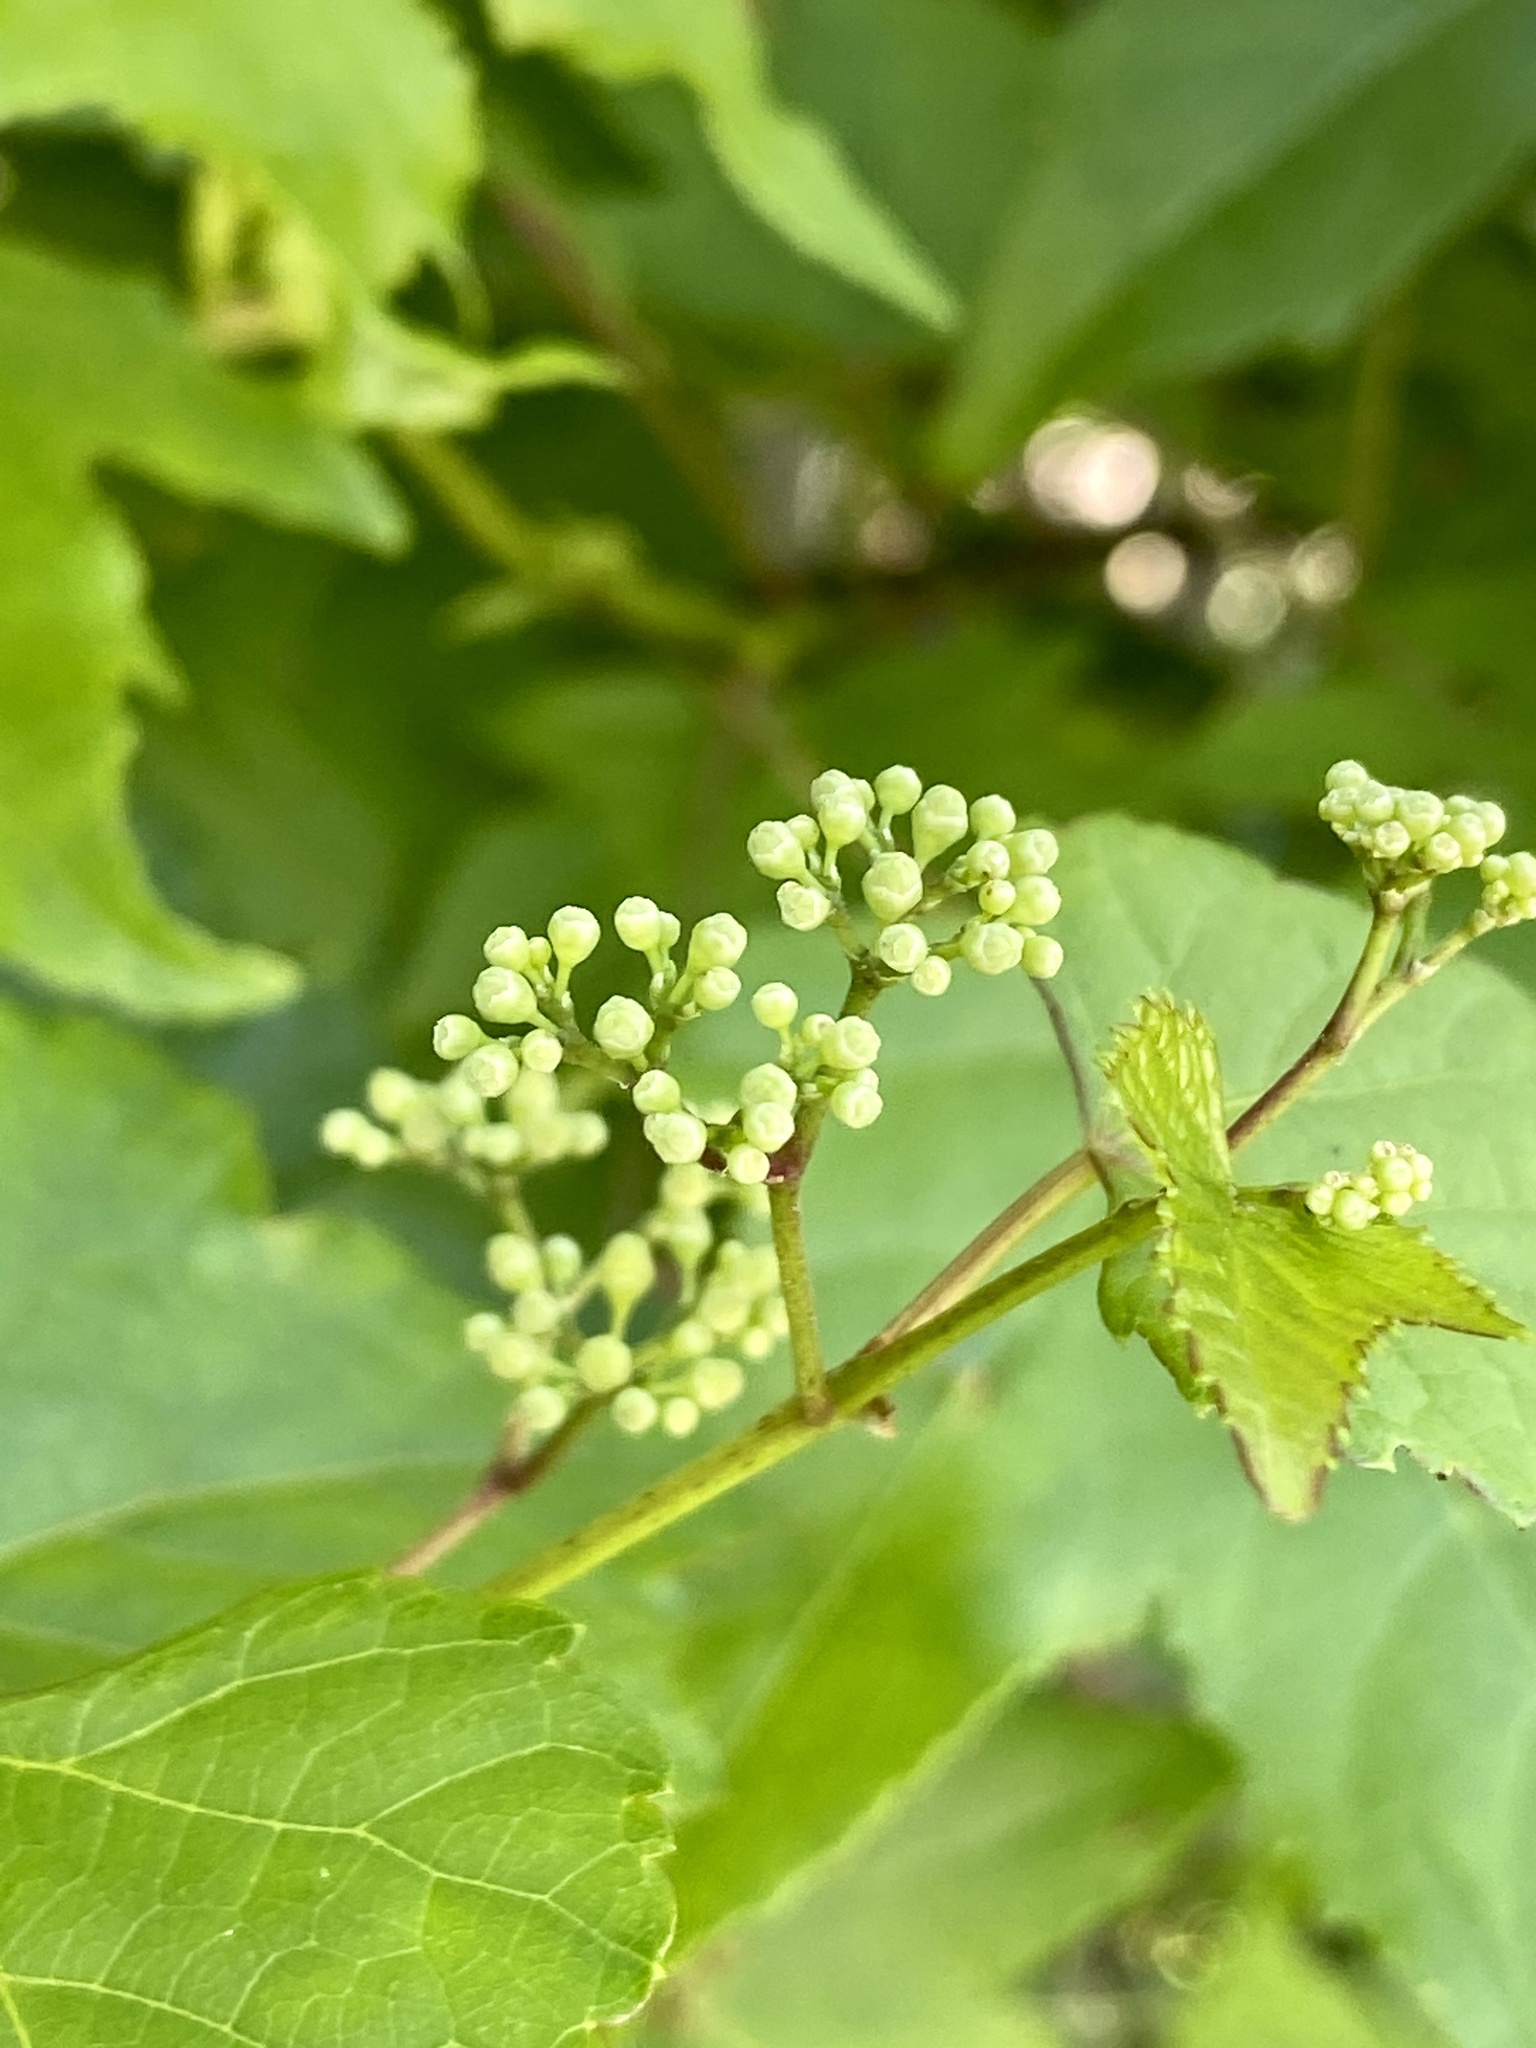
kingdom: Plantae
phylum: Tracheophyta
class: Magnoliopsida
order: Vitales
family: Vitaceae
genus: Ampelopsis
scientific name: Ampelopsis glandulosa
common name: Amur peppervine
